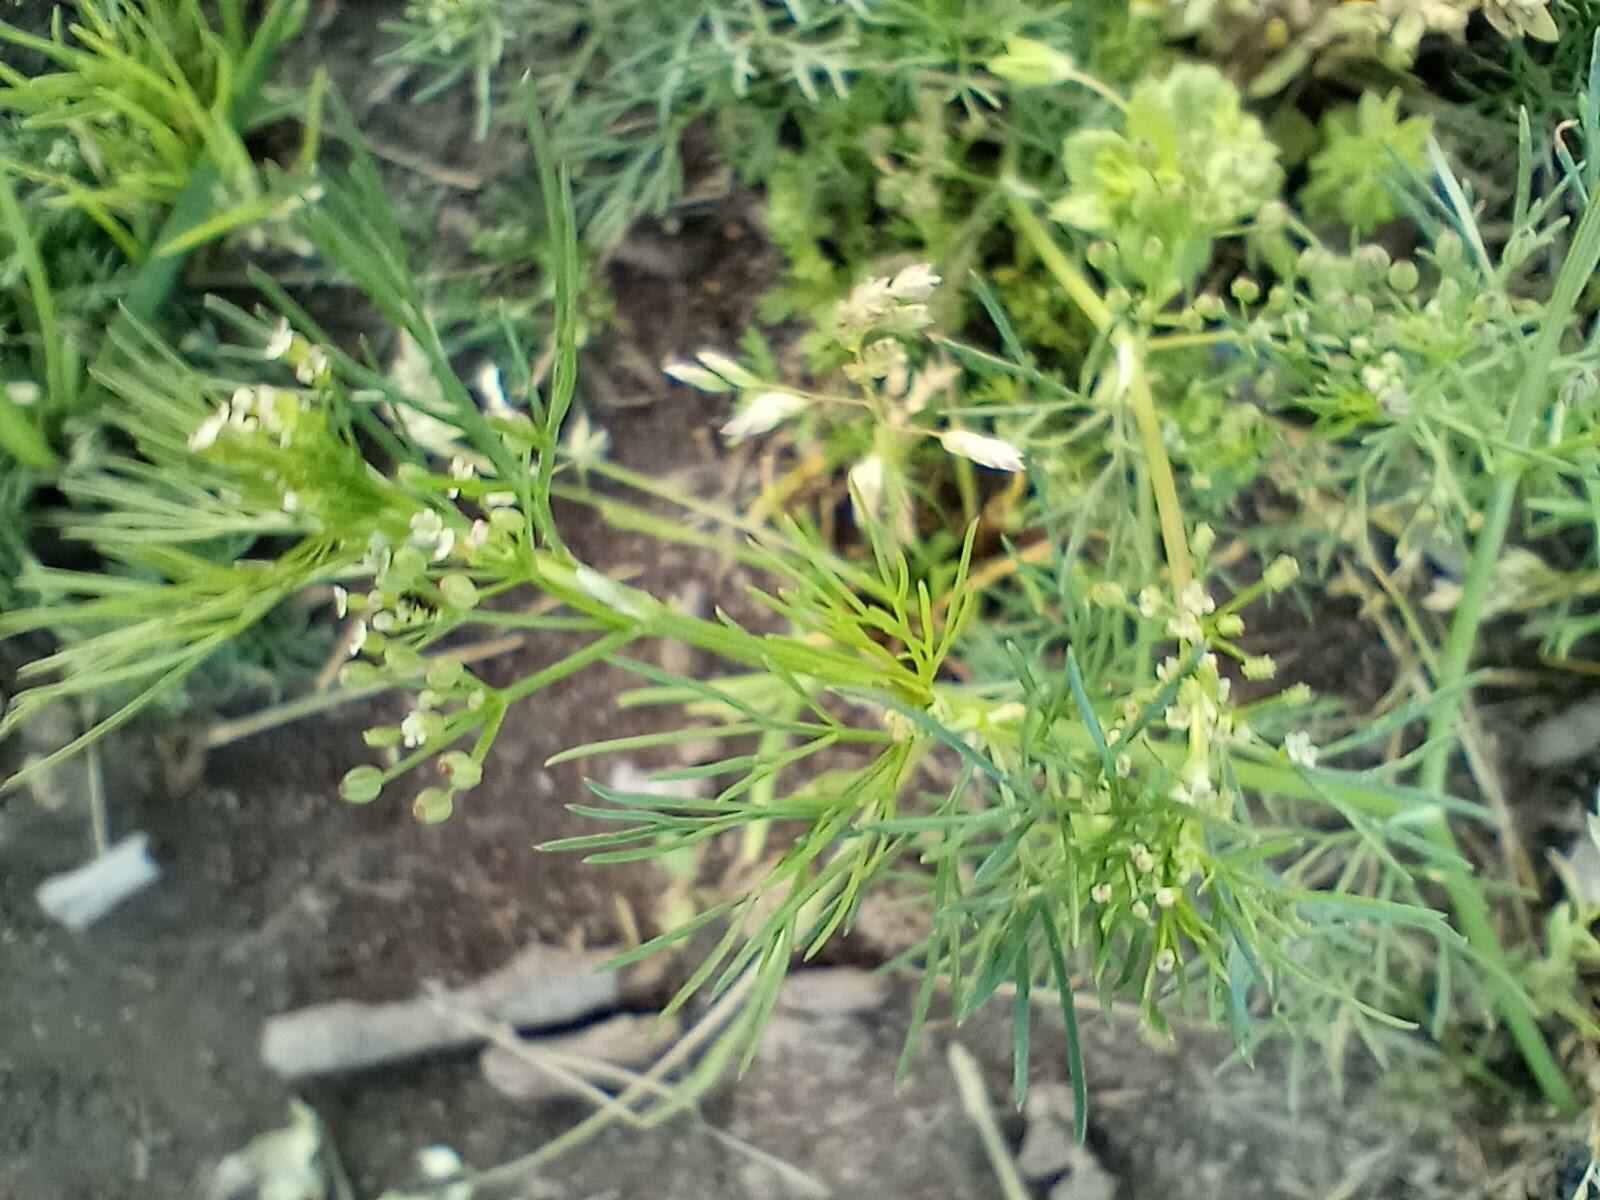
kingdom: Plantae
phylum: Tracheophyta
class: Magnoliopsida
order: Apiales
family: Apiaceae
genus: Cyclospermum
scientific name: Cyclospermum leptophyllum
